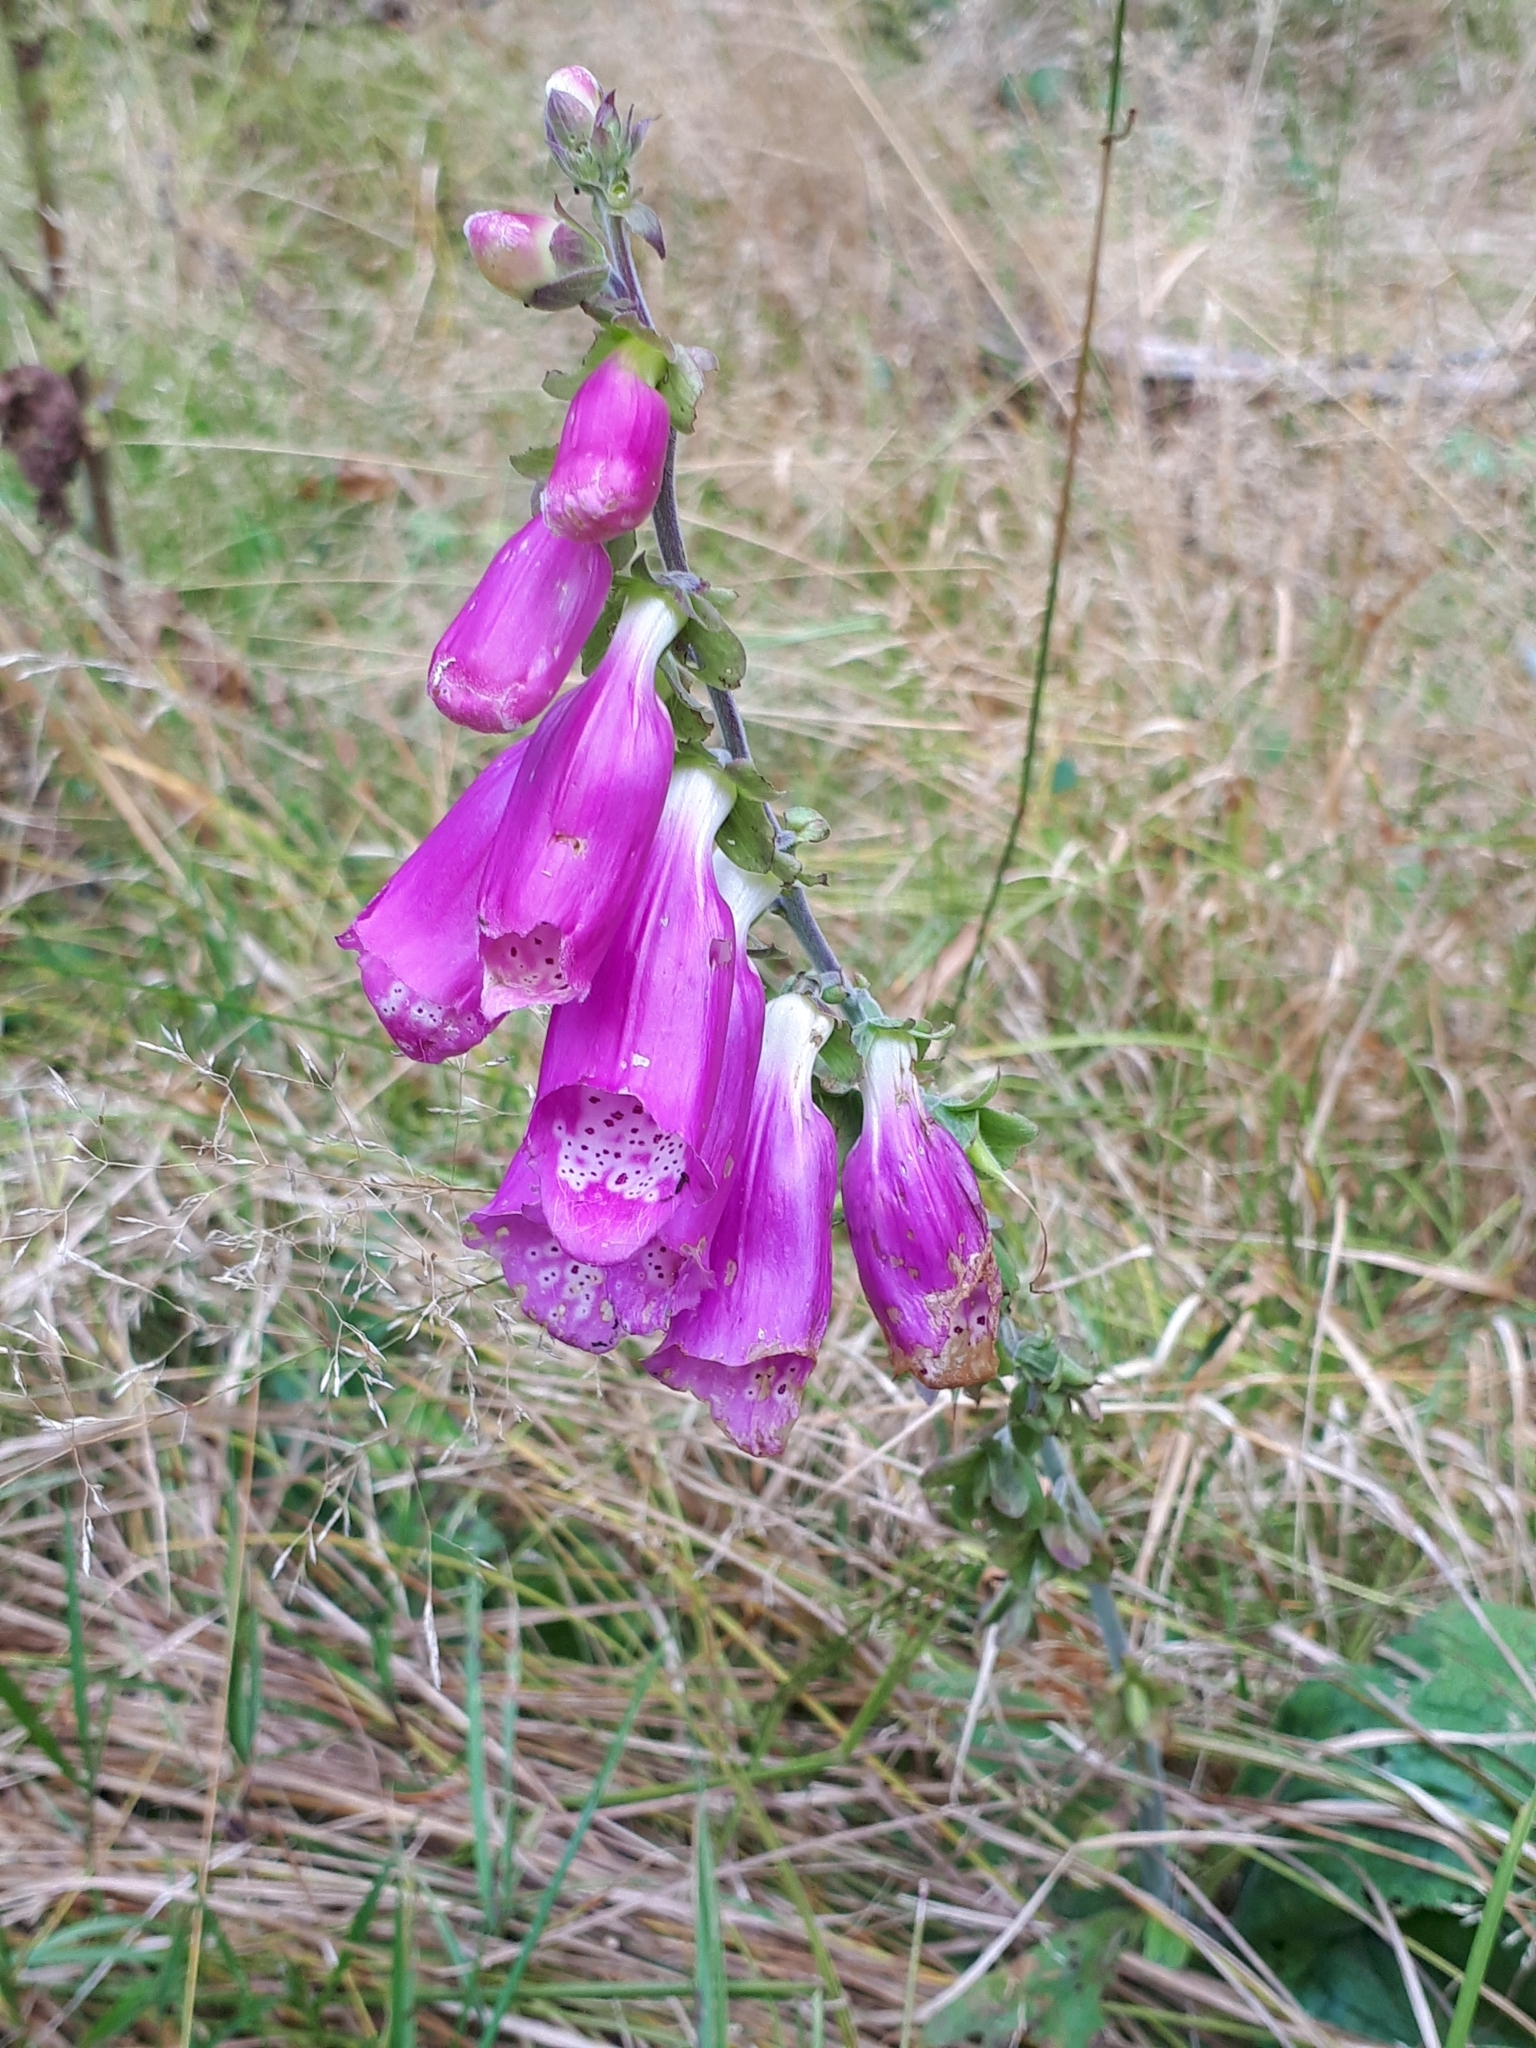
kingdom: Plantae
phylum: Tracheophyta
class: Magnoliopsida
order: Lamiales
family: Plantaginaceae
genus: Digitalis
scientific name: Digitalis purpurea
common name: Foxglove
